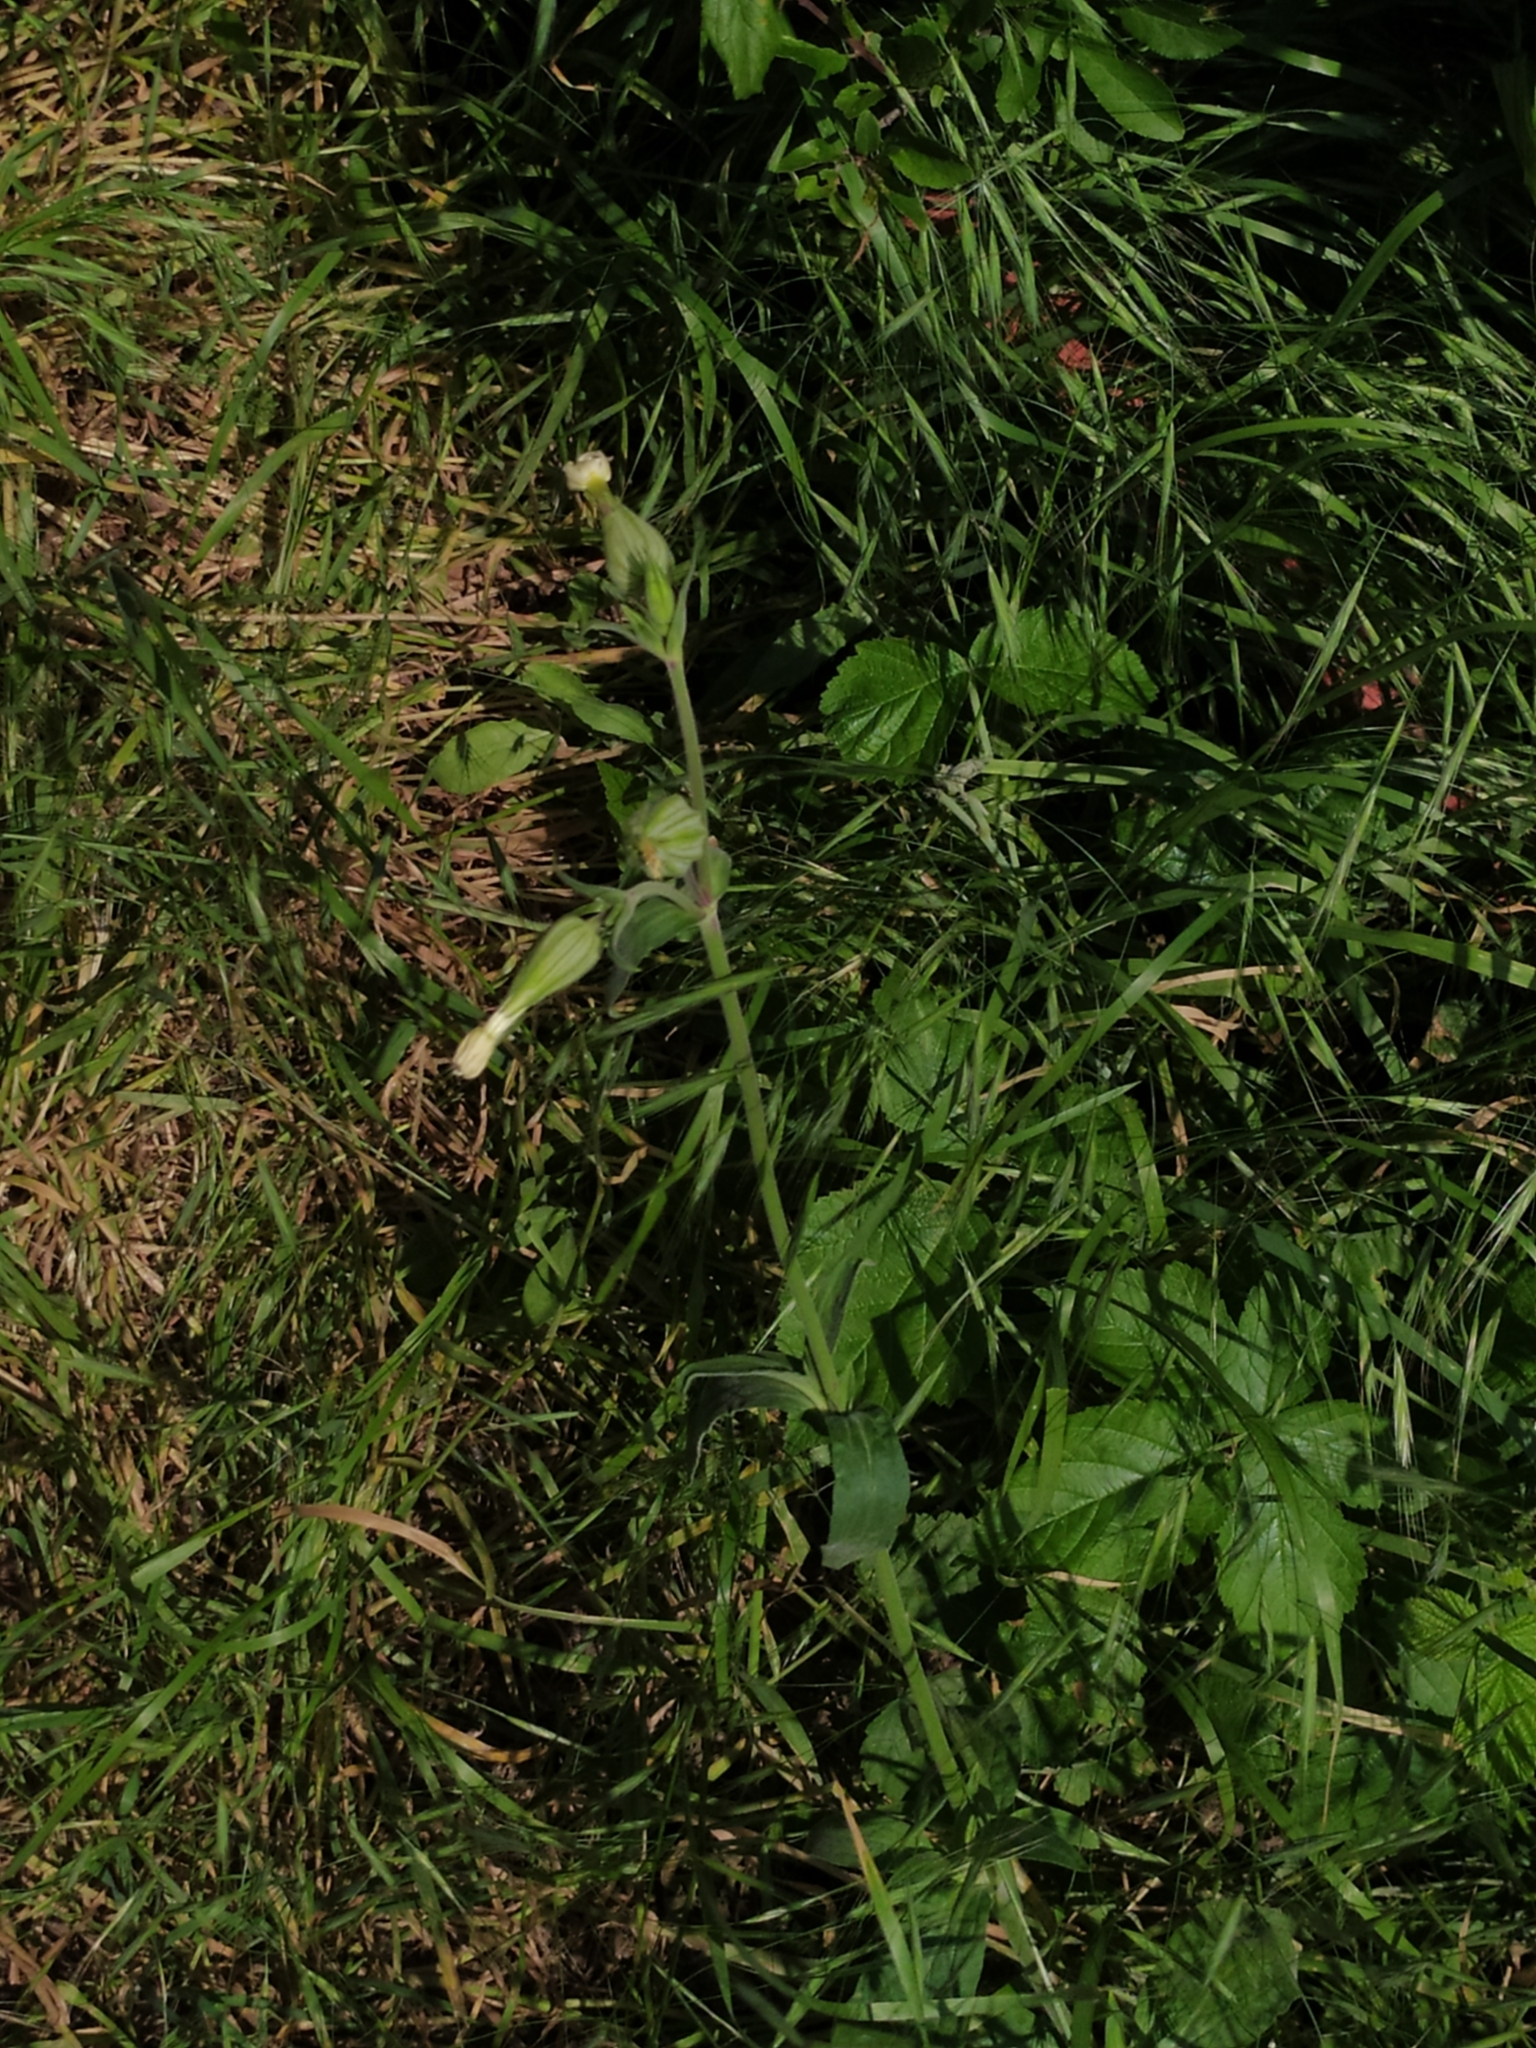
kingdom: Plantae
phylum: Tracheophyta
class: Magnoliopsida
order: Caryophyllales
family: Caryophyllaceae
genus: Silene
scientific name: Silene latifolia
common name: White campion
